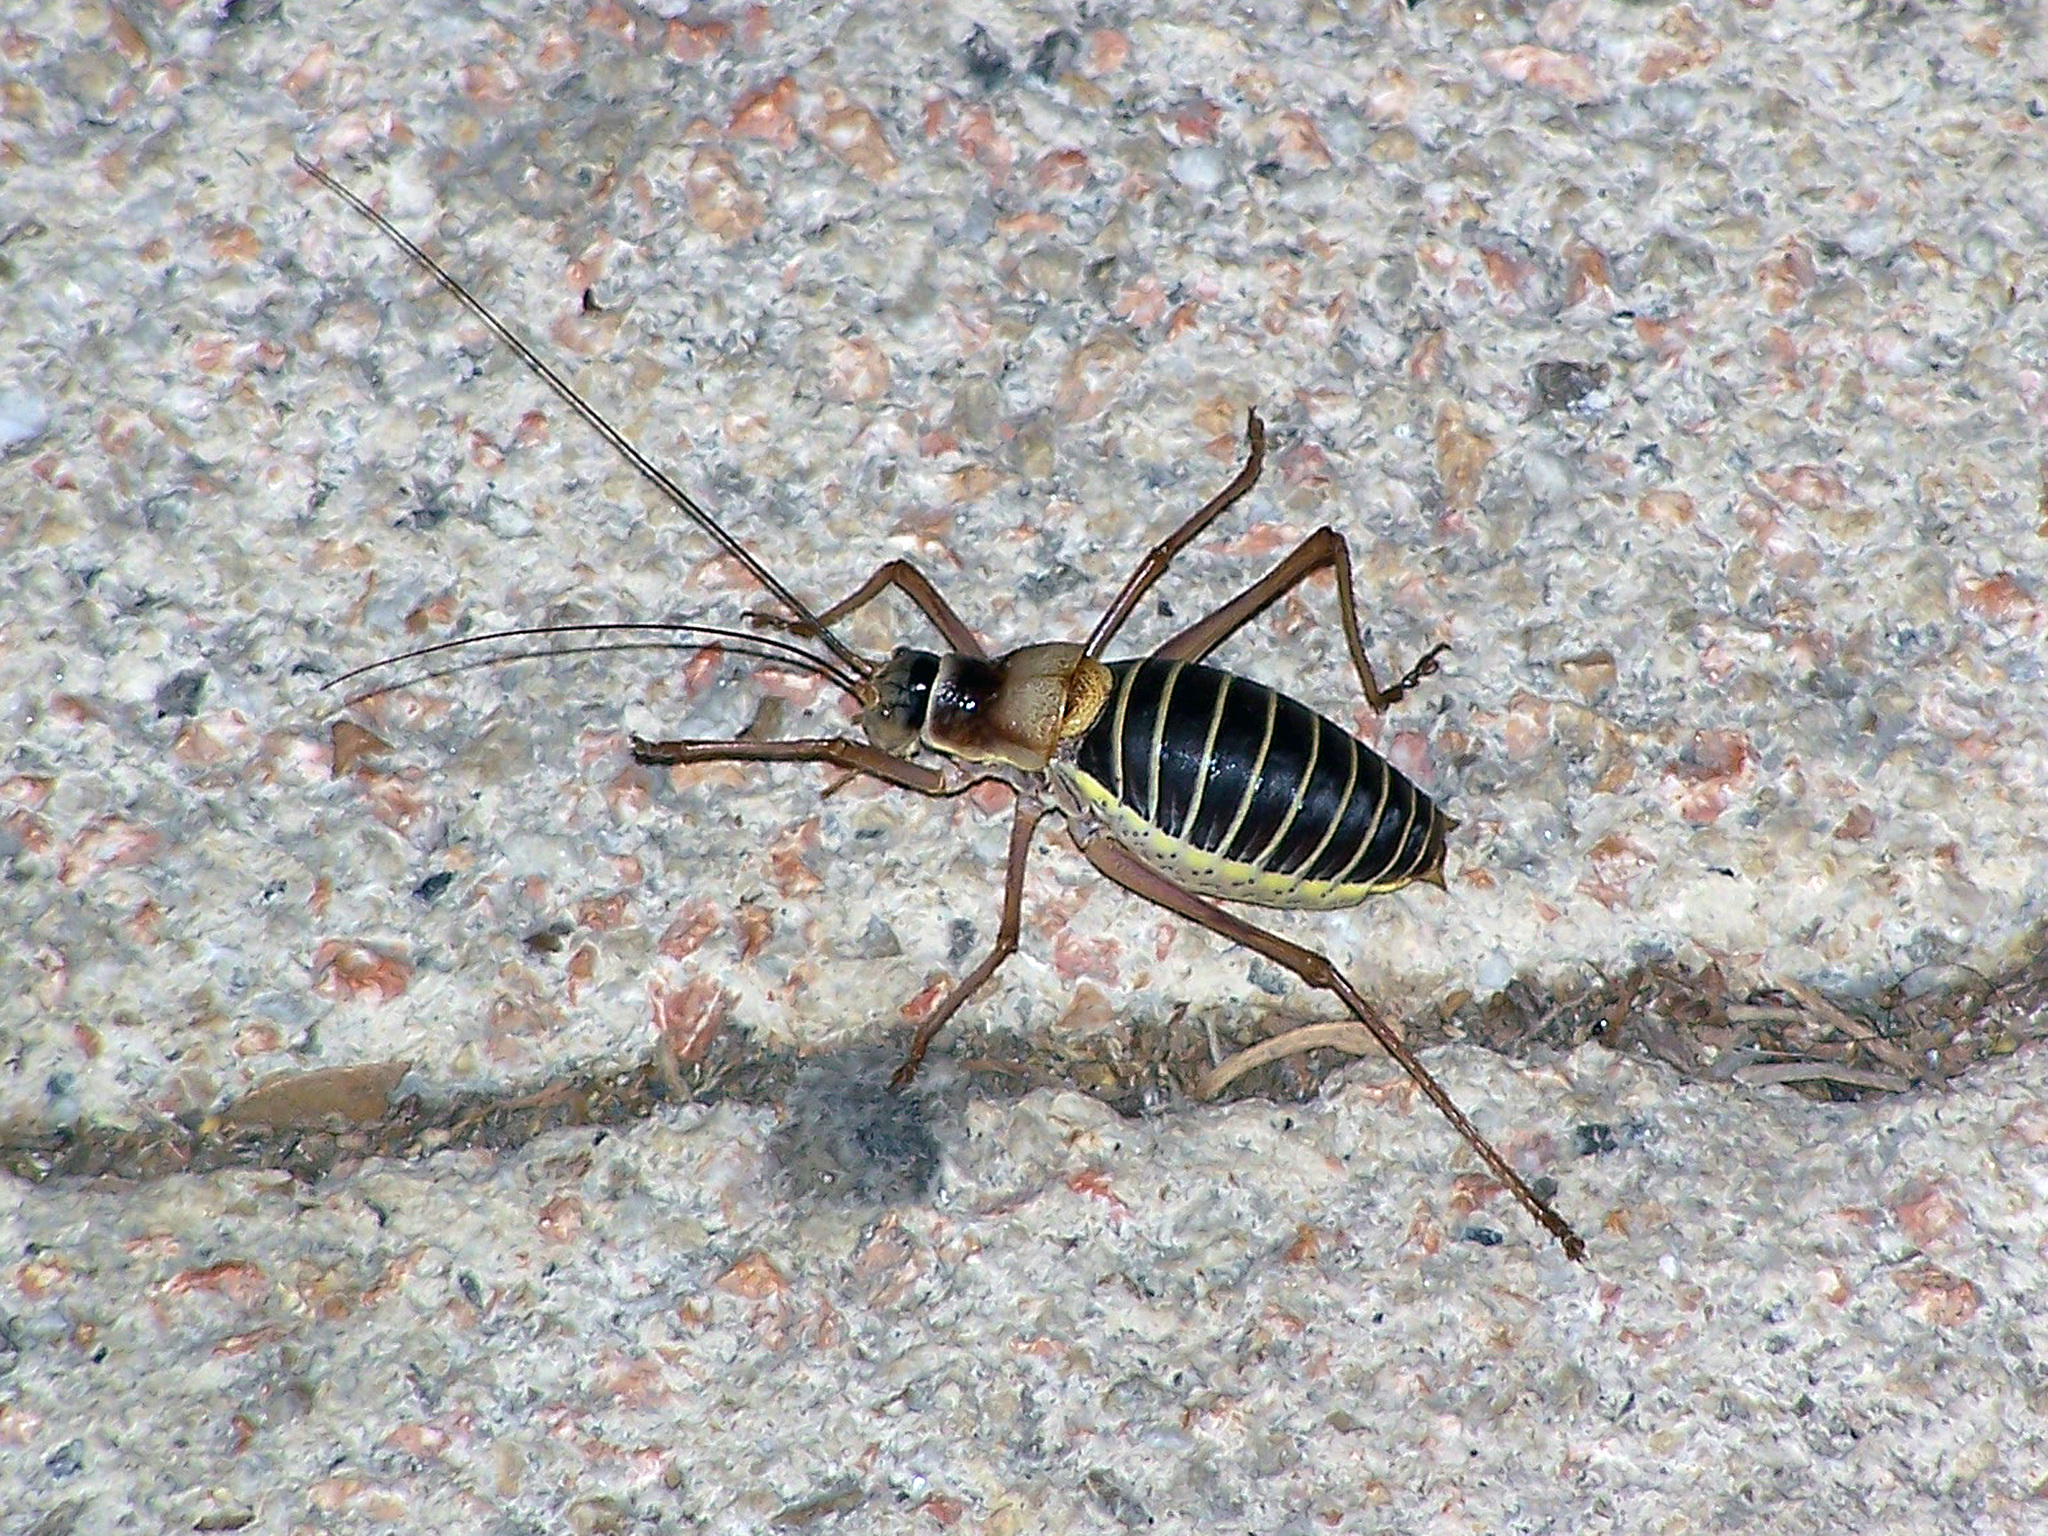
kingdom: Animalia
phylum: Arthropoda
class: Insecta
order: Orthoptera
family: Tettigoniidae
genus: Ephippiger
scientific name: Ephippiger diurnus
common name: Western saddle bush-cricket
